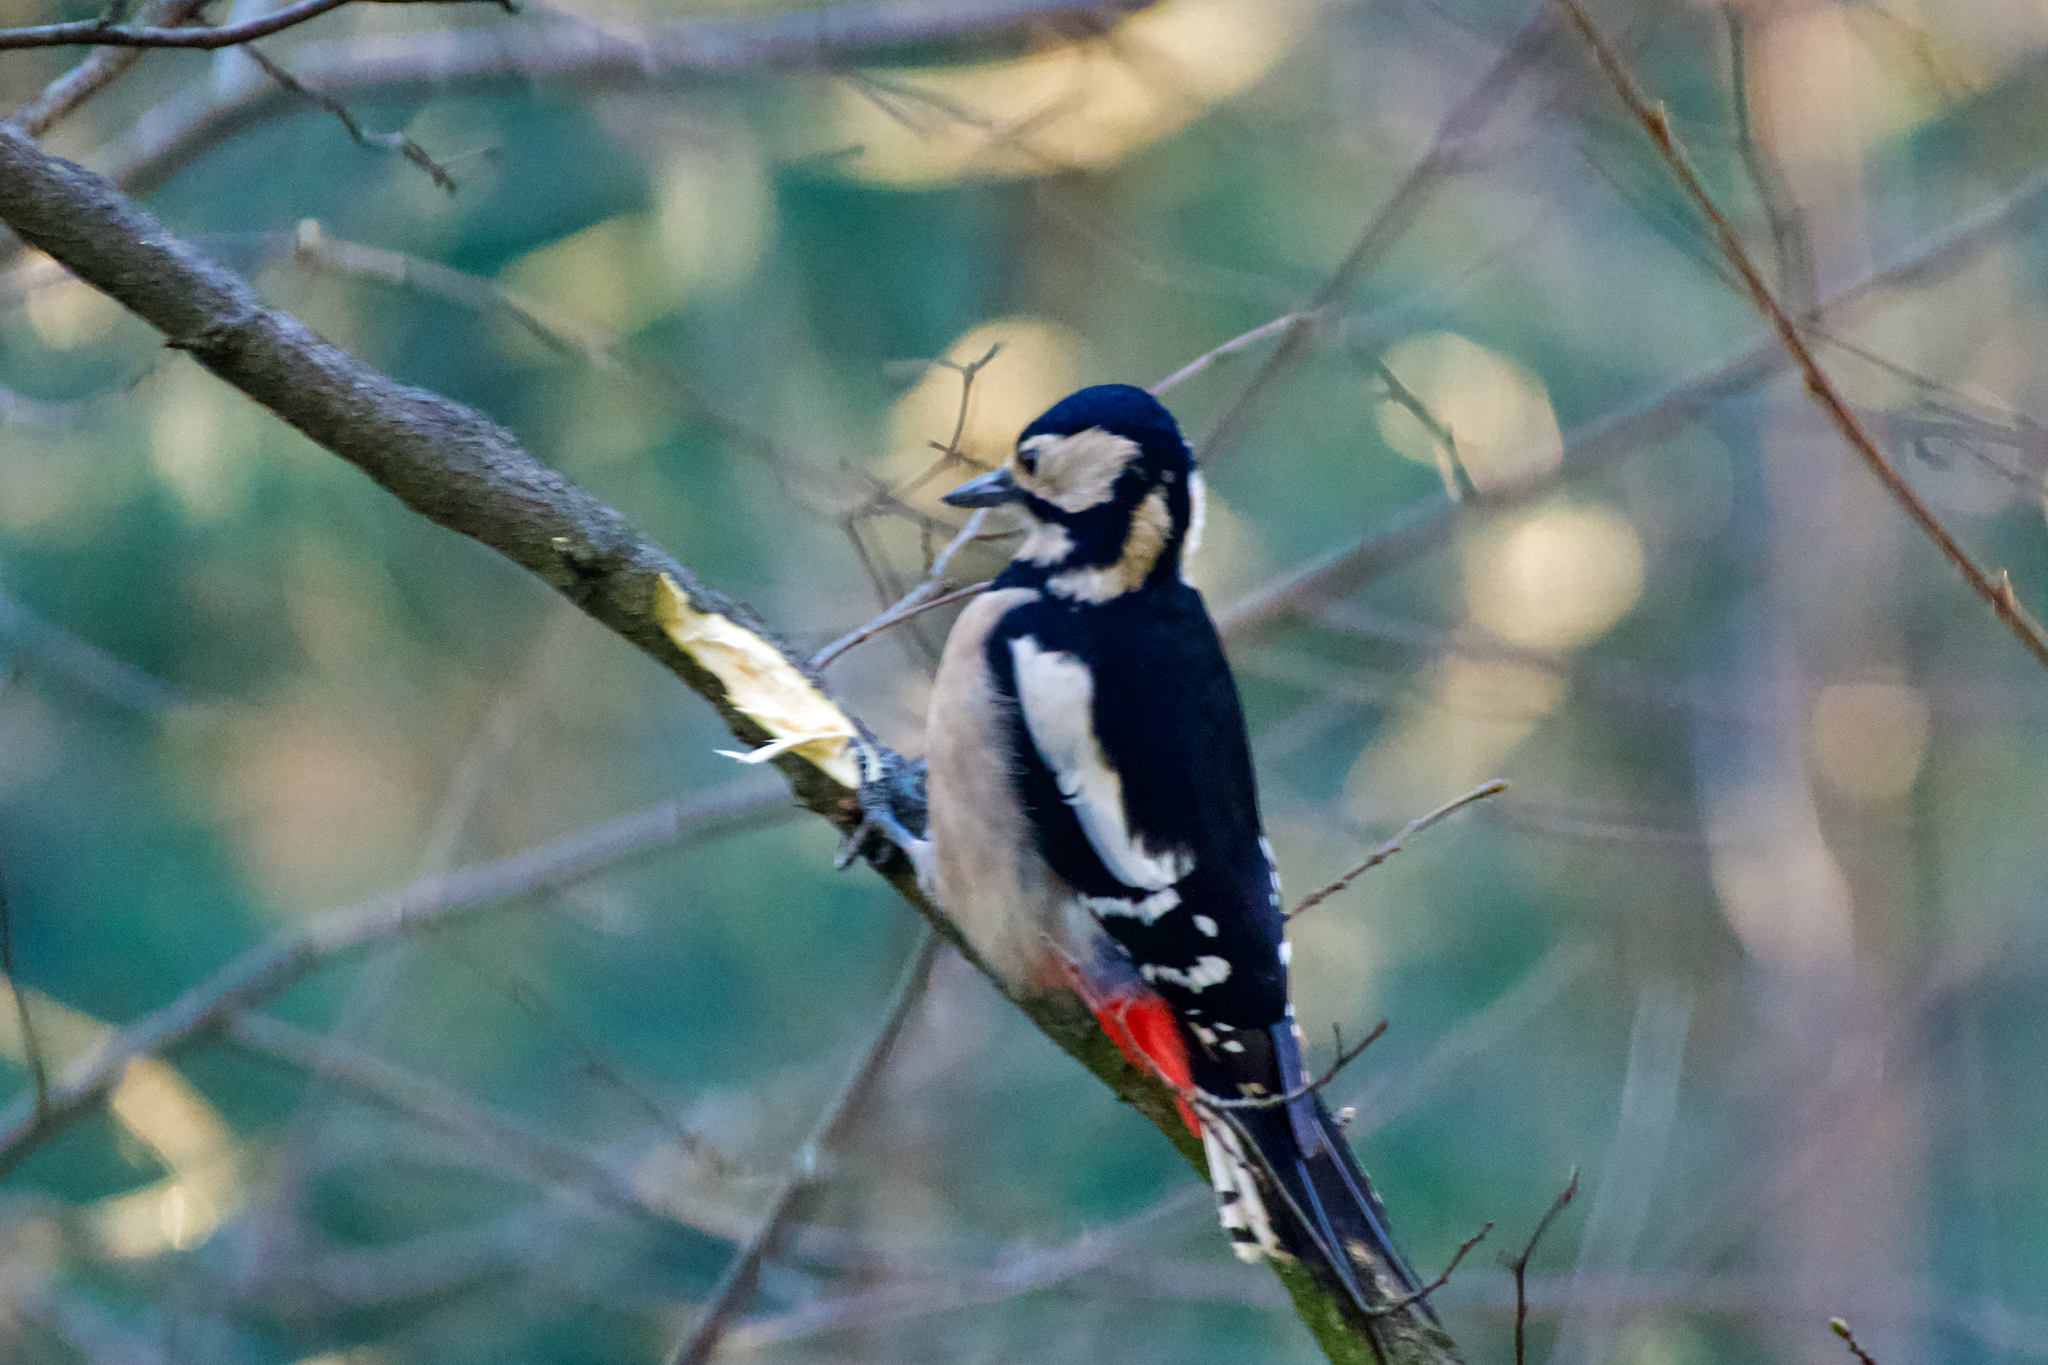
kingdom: Animalia
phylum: Chordata
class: Aves
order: Piciformes
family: Picidae
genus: Dendrocopos
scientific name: Dendrocopos major
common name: Great spotted woodpecker
